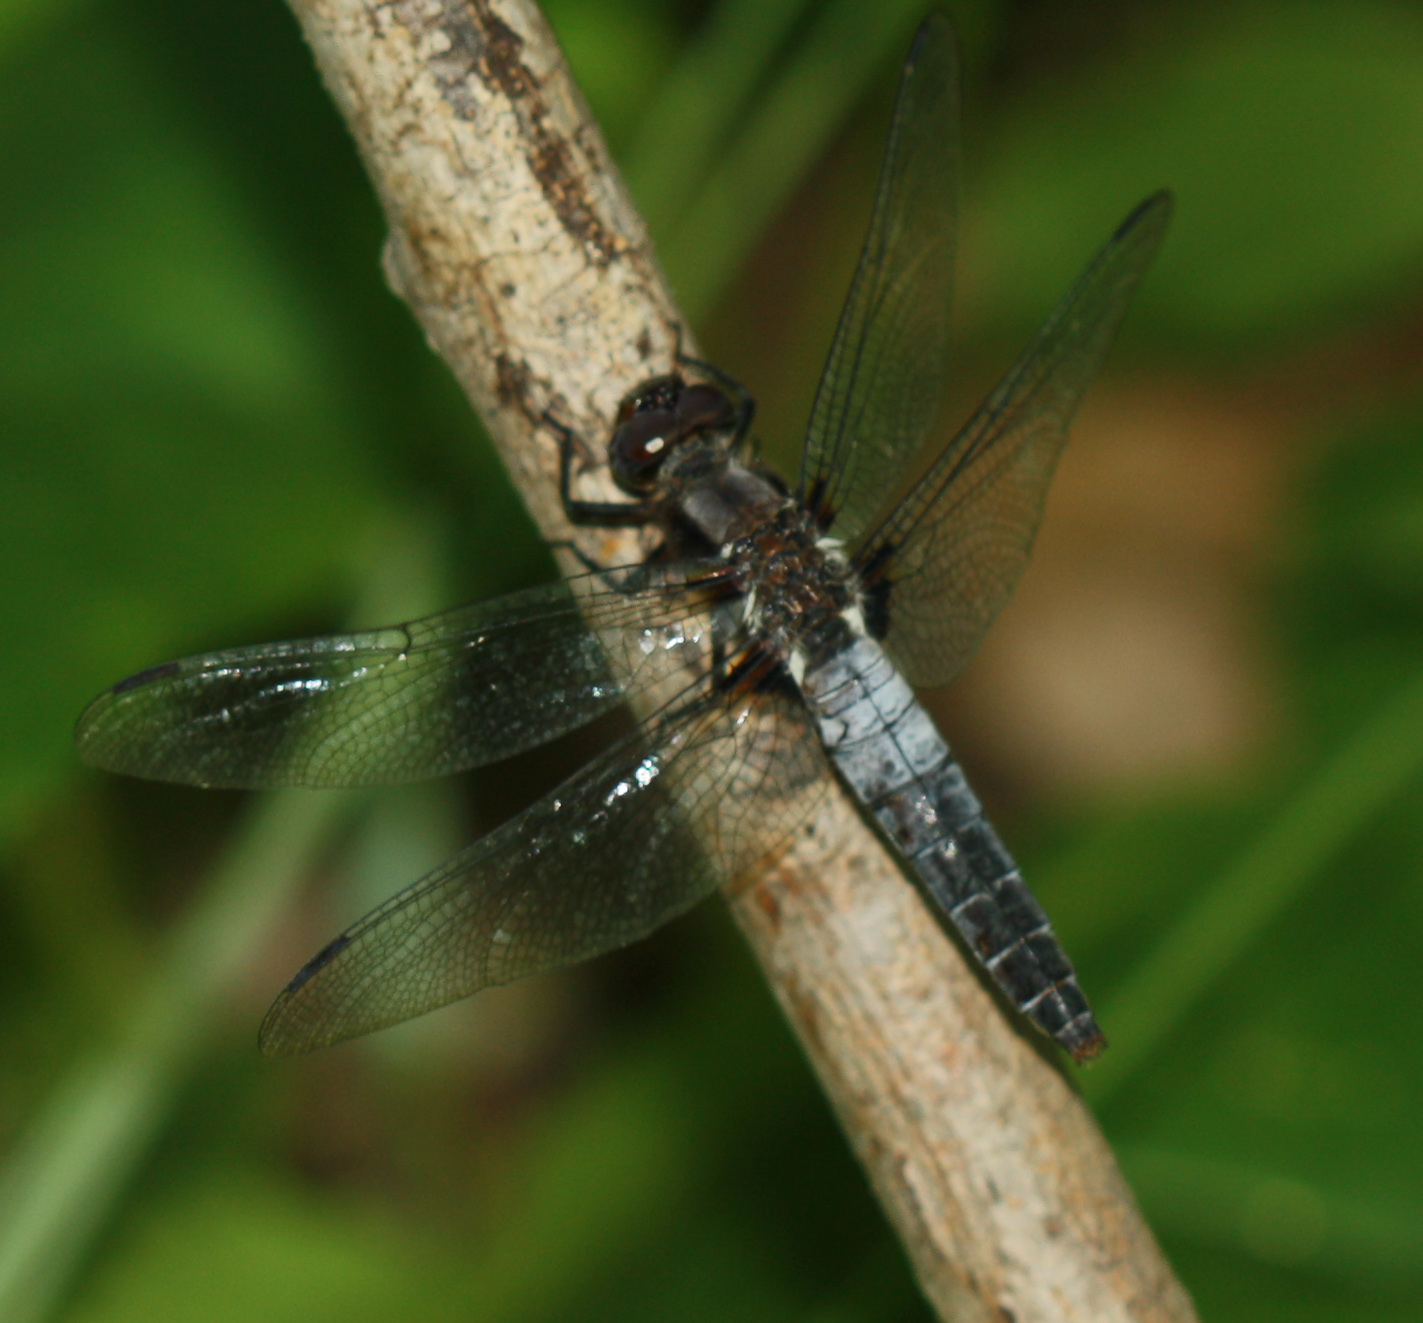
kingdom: Animalia
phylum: Arthropoda
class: Insecta
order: Odonata
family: Libellulidae
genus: Ladona
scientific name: Ladona julia
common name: Chalk-fronted corporal
